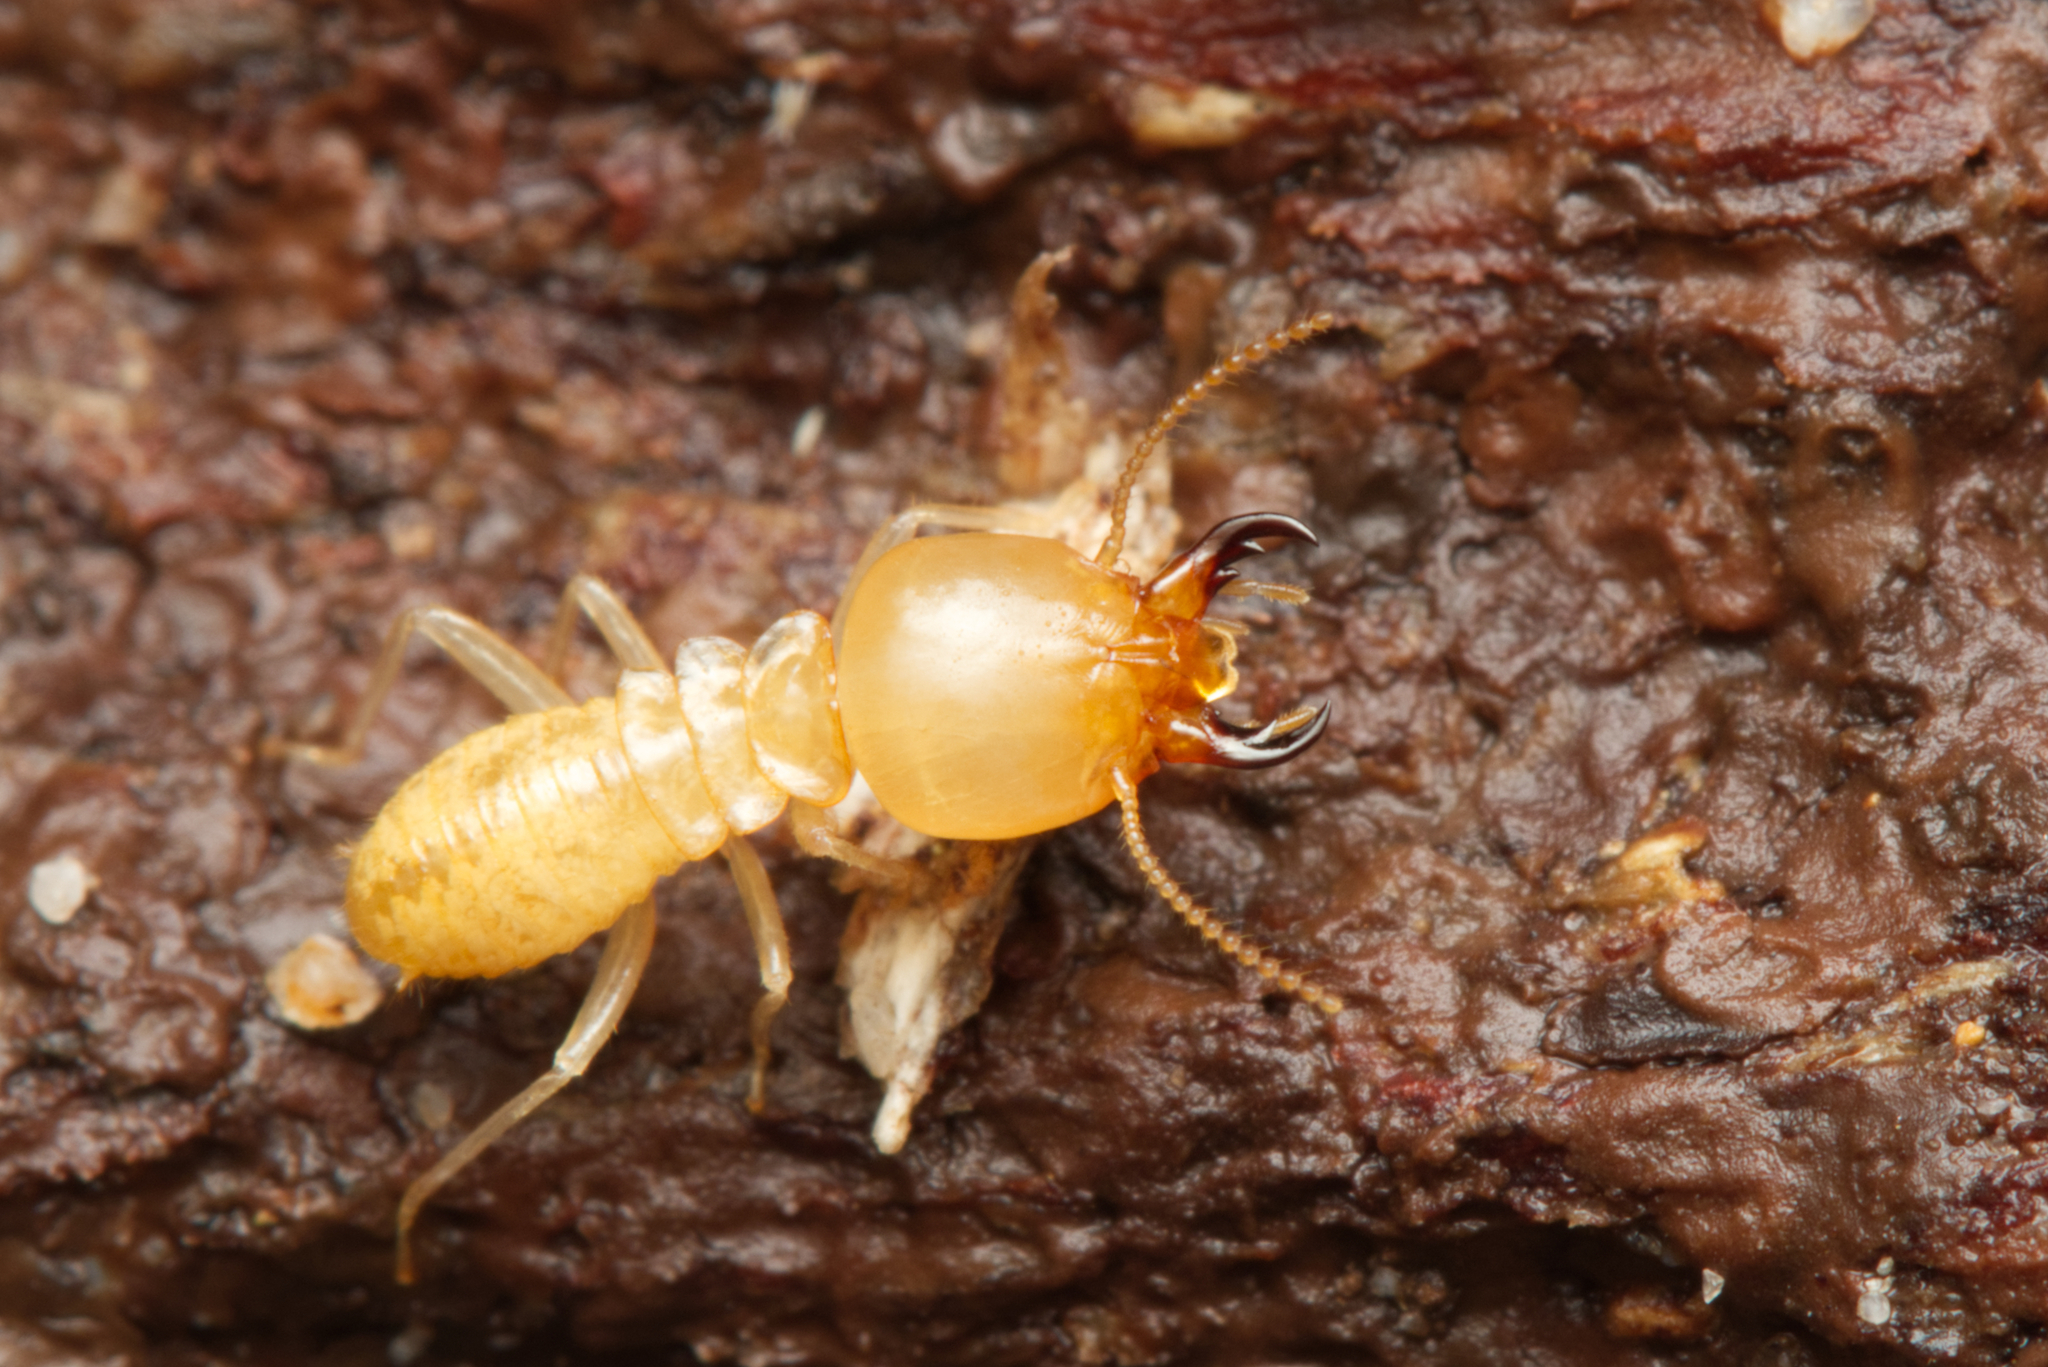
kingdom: Animalia
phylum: Arthropoda
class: Insecta
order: Blattodea
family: Rhinotermitidae
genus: Schedorhinotermes
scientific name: Schedorhinotermes seclusus
